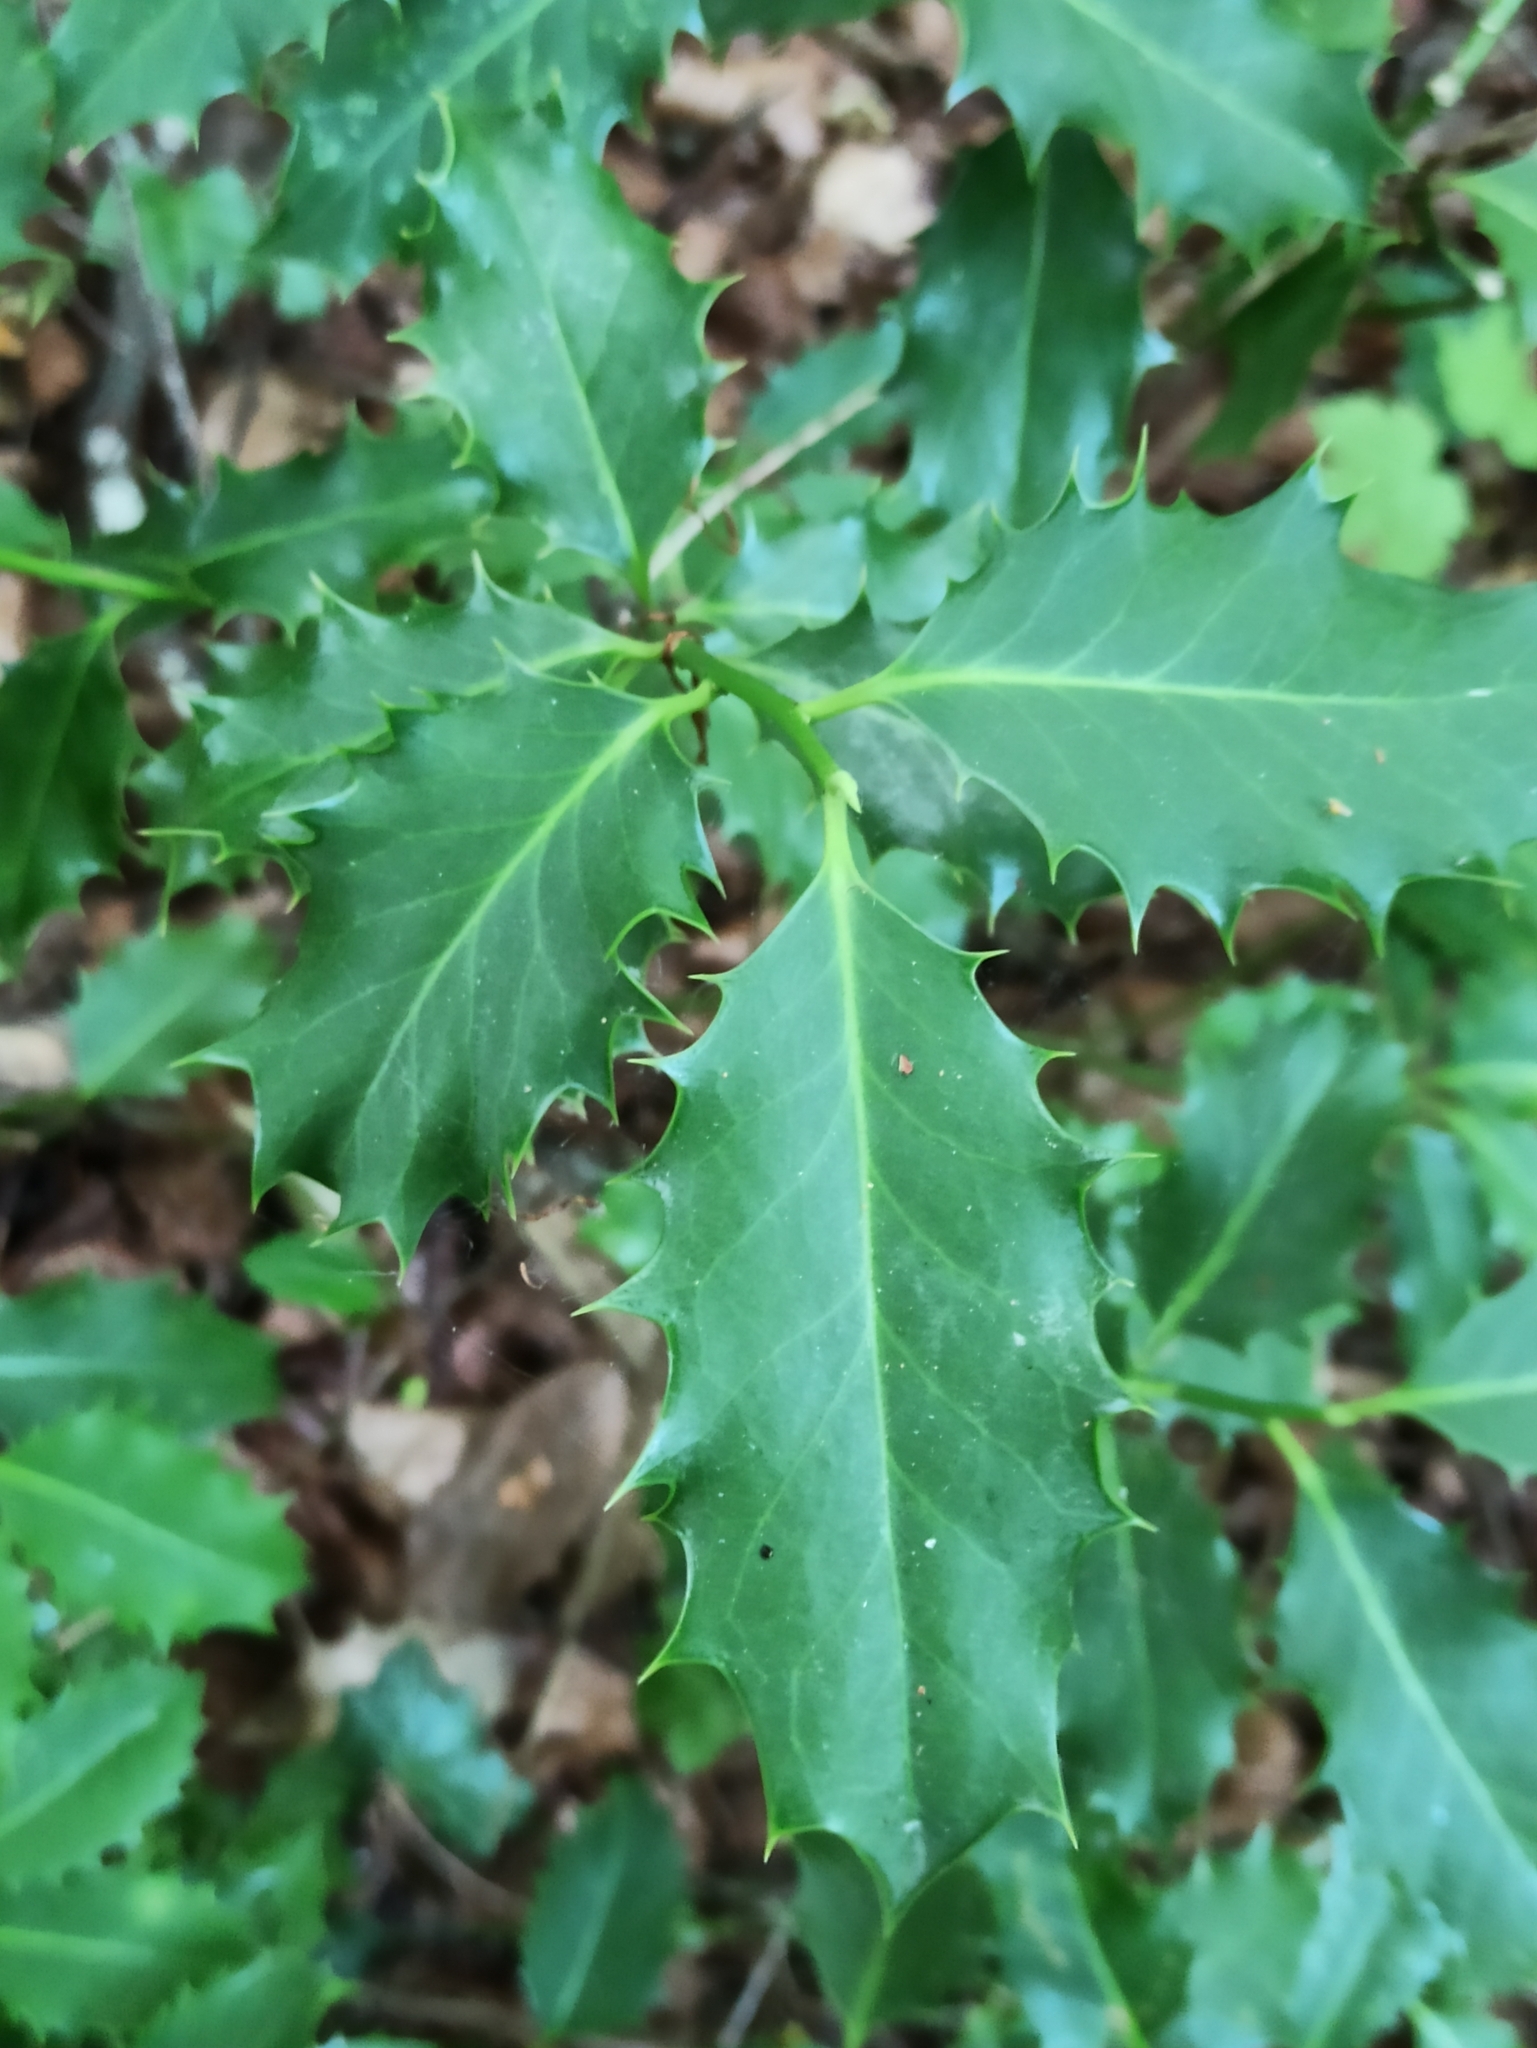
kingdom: Plantae
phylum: Tracheophyta
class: Magnoliopsida
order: Aquifoliales
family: Aquifoliaceae
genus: Ilex
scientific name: Ilex aquifolium
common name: English holly
